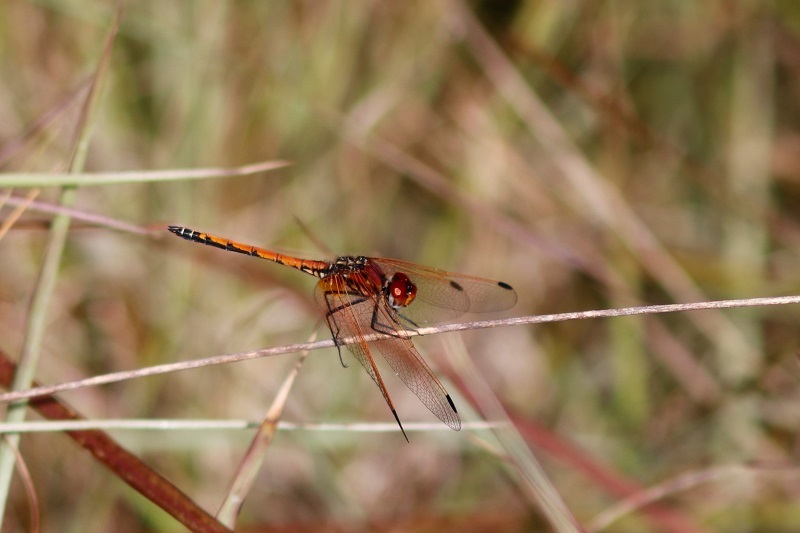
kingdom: Animalia
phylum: Arthropoda
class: Insecta
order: Odonata
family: Libellulidae
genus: Trithemis
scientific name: Trithemis arteriosa
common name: Red-veined dropwing
